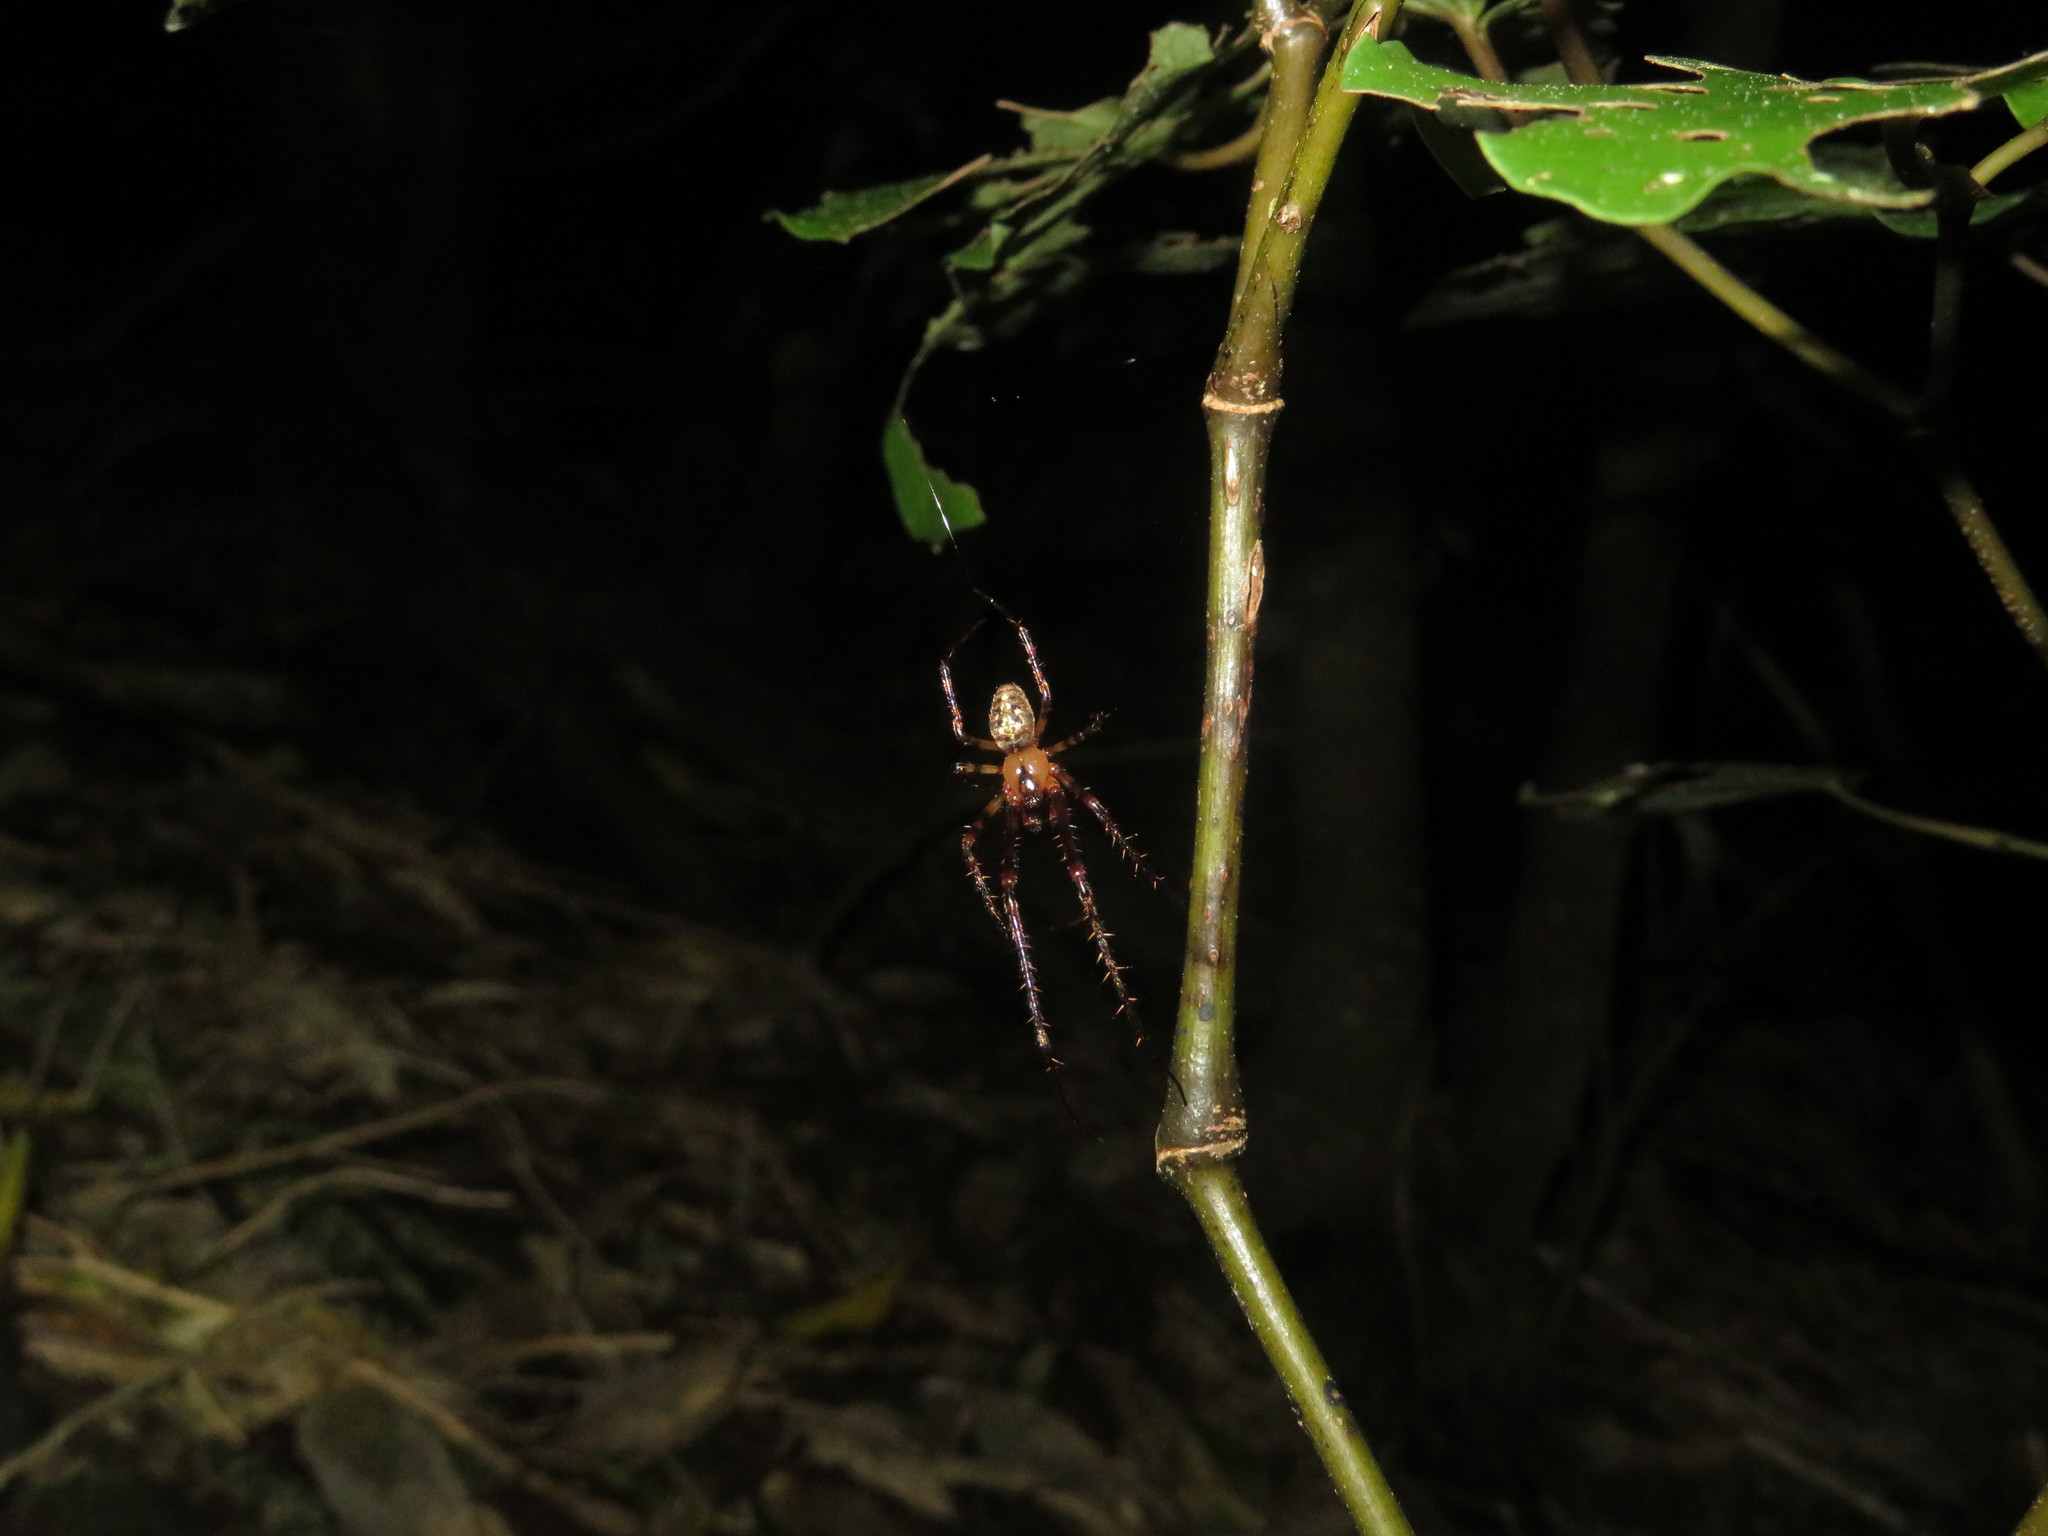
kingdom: Animalia
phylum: Arthropoda
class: Arachnida
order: Araneae
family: Tetragnathidae
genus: Taraire
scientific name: Taraire rufolineata
